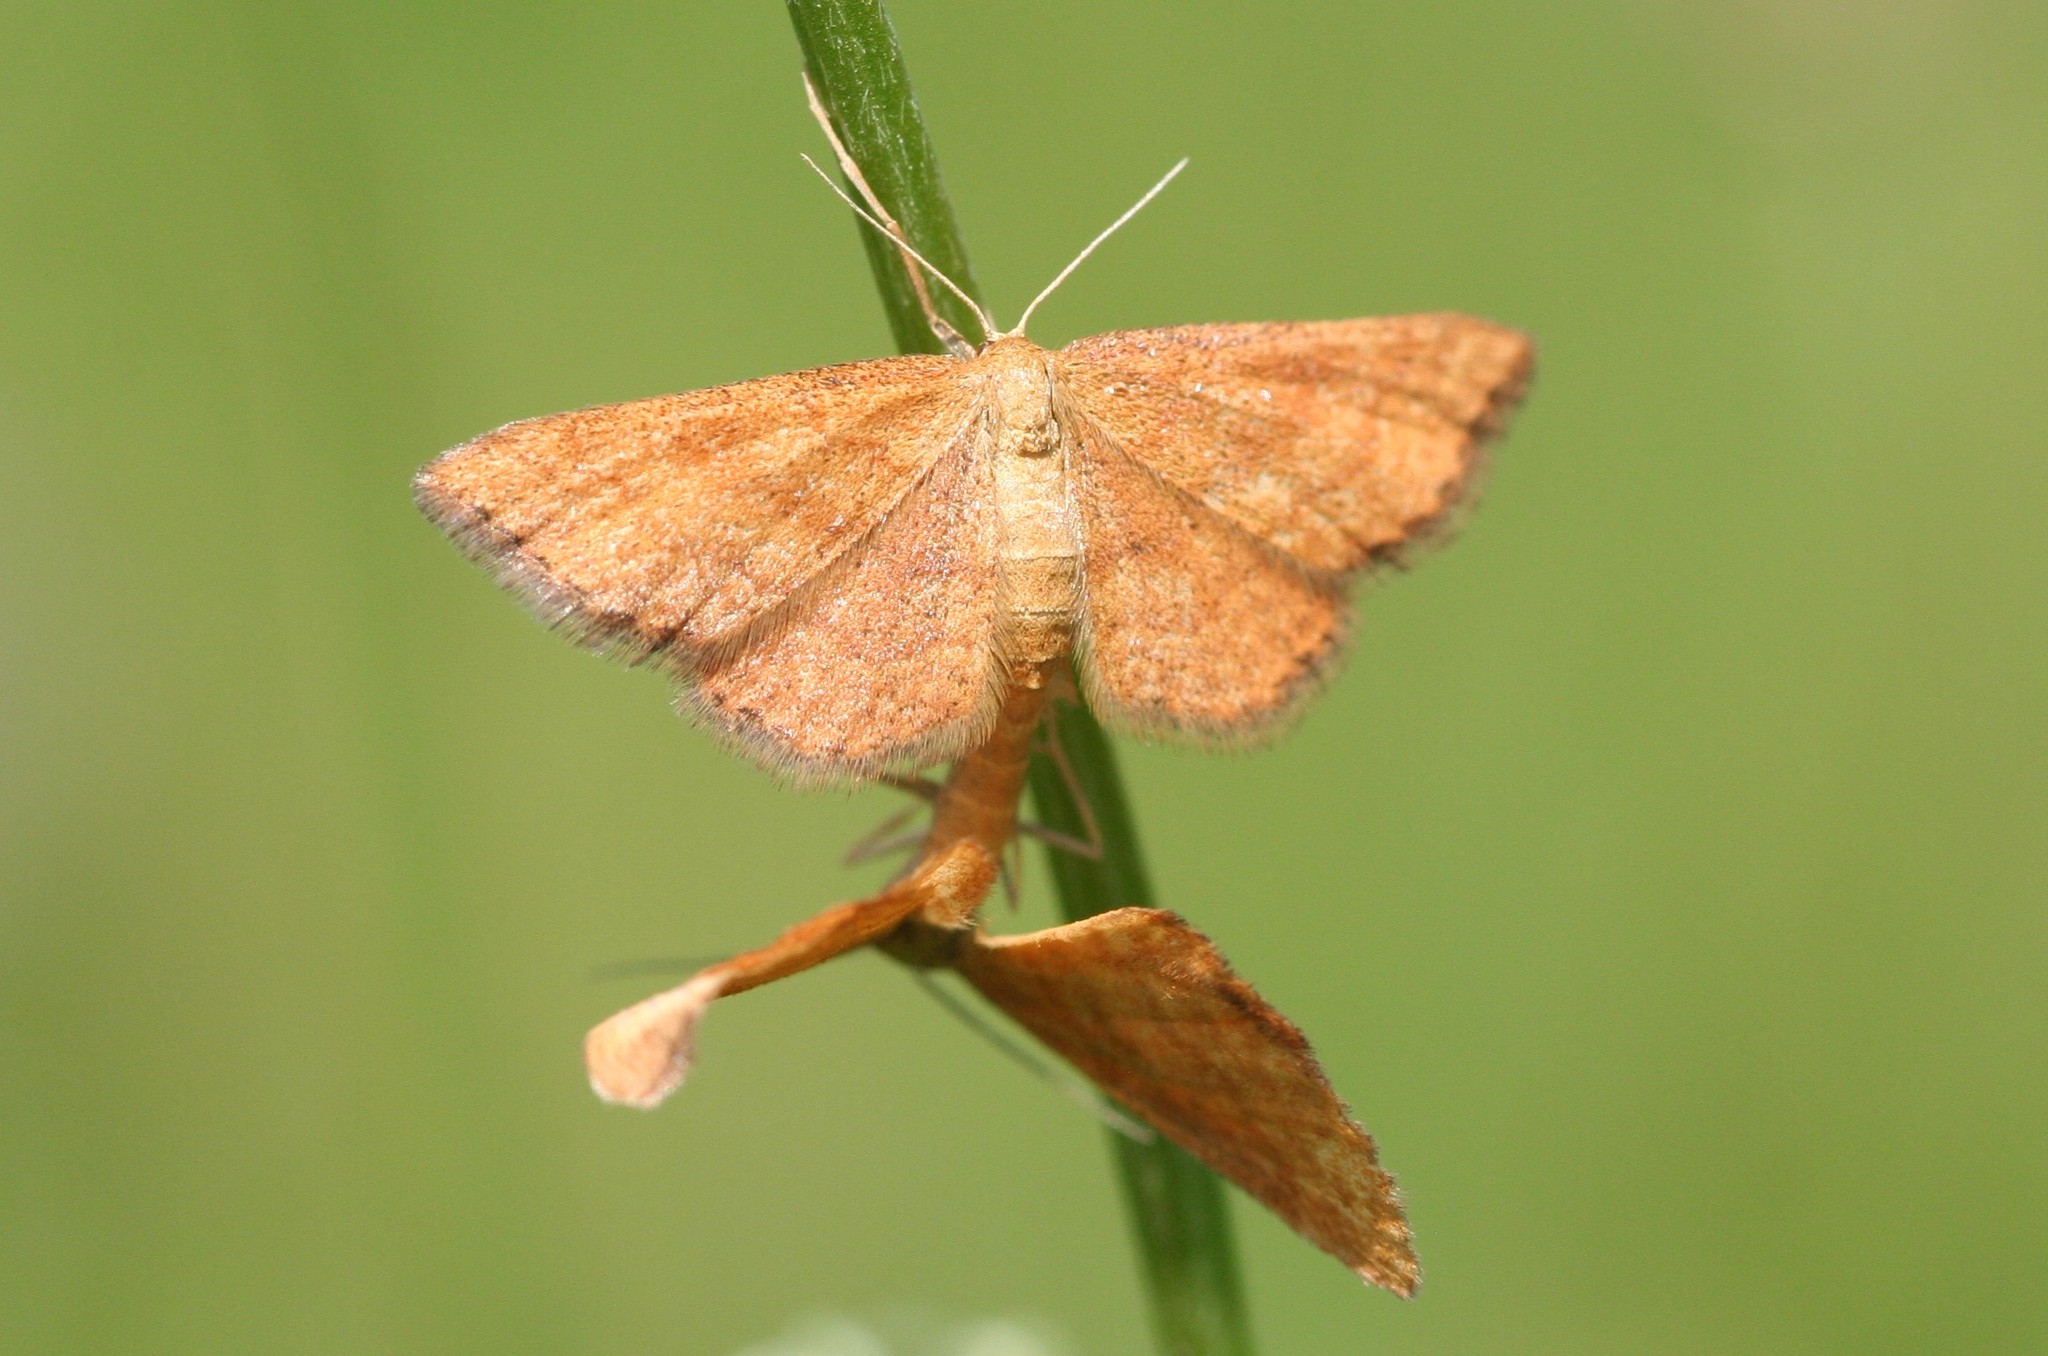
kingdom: Animalia
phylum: Arthropoda
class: Insecta
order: Lepidoptera
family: Geometridae
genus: Idaea
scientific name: Idaea serpentata
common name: Ochraceous wave
